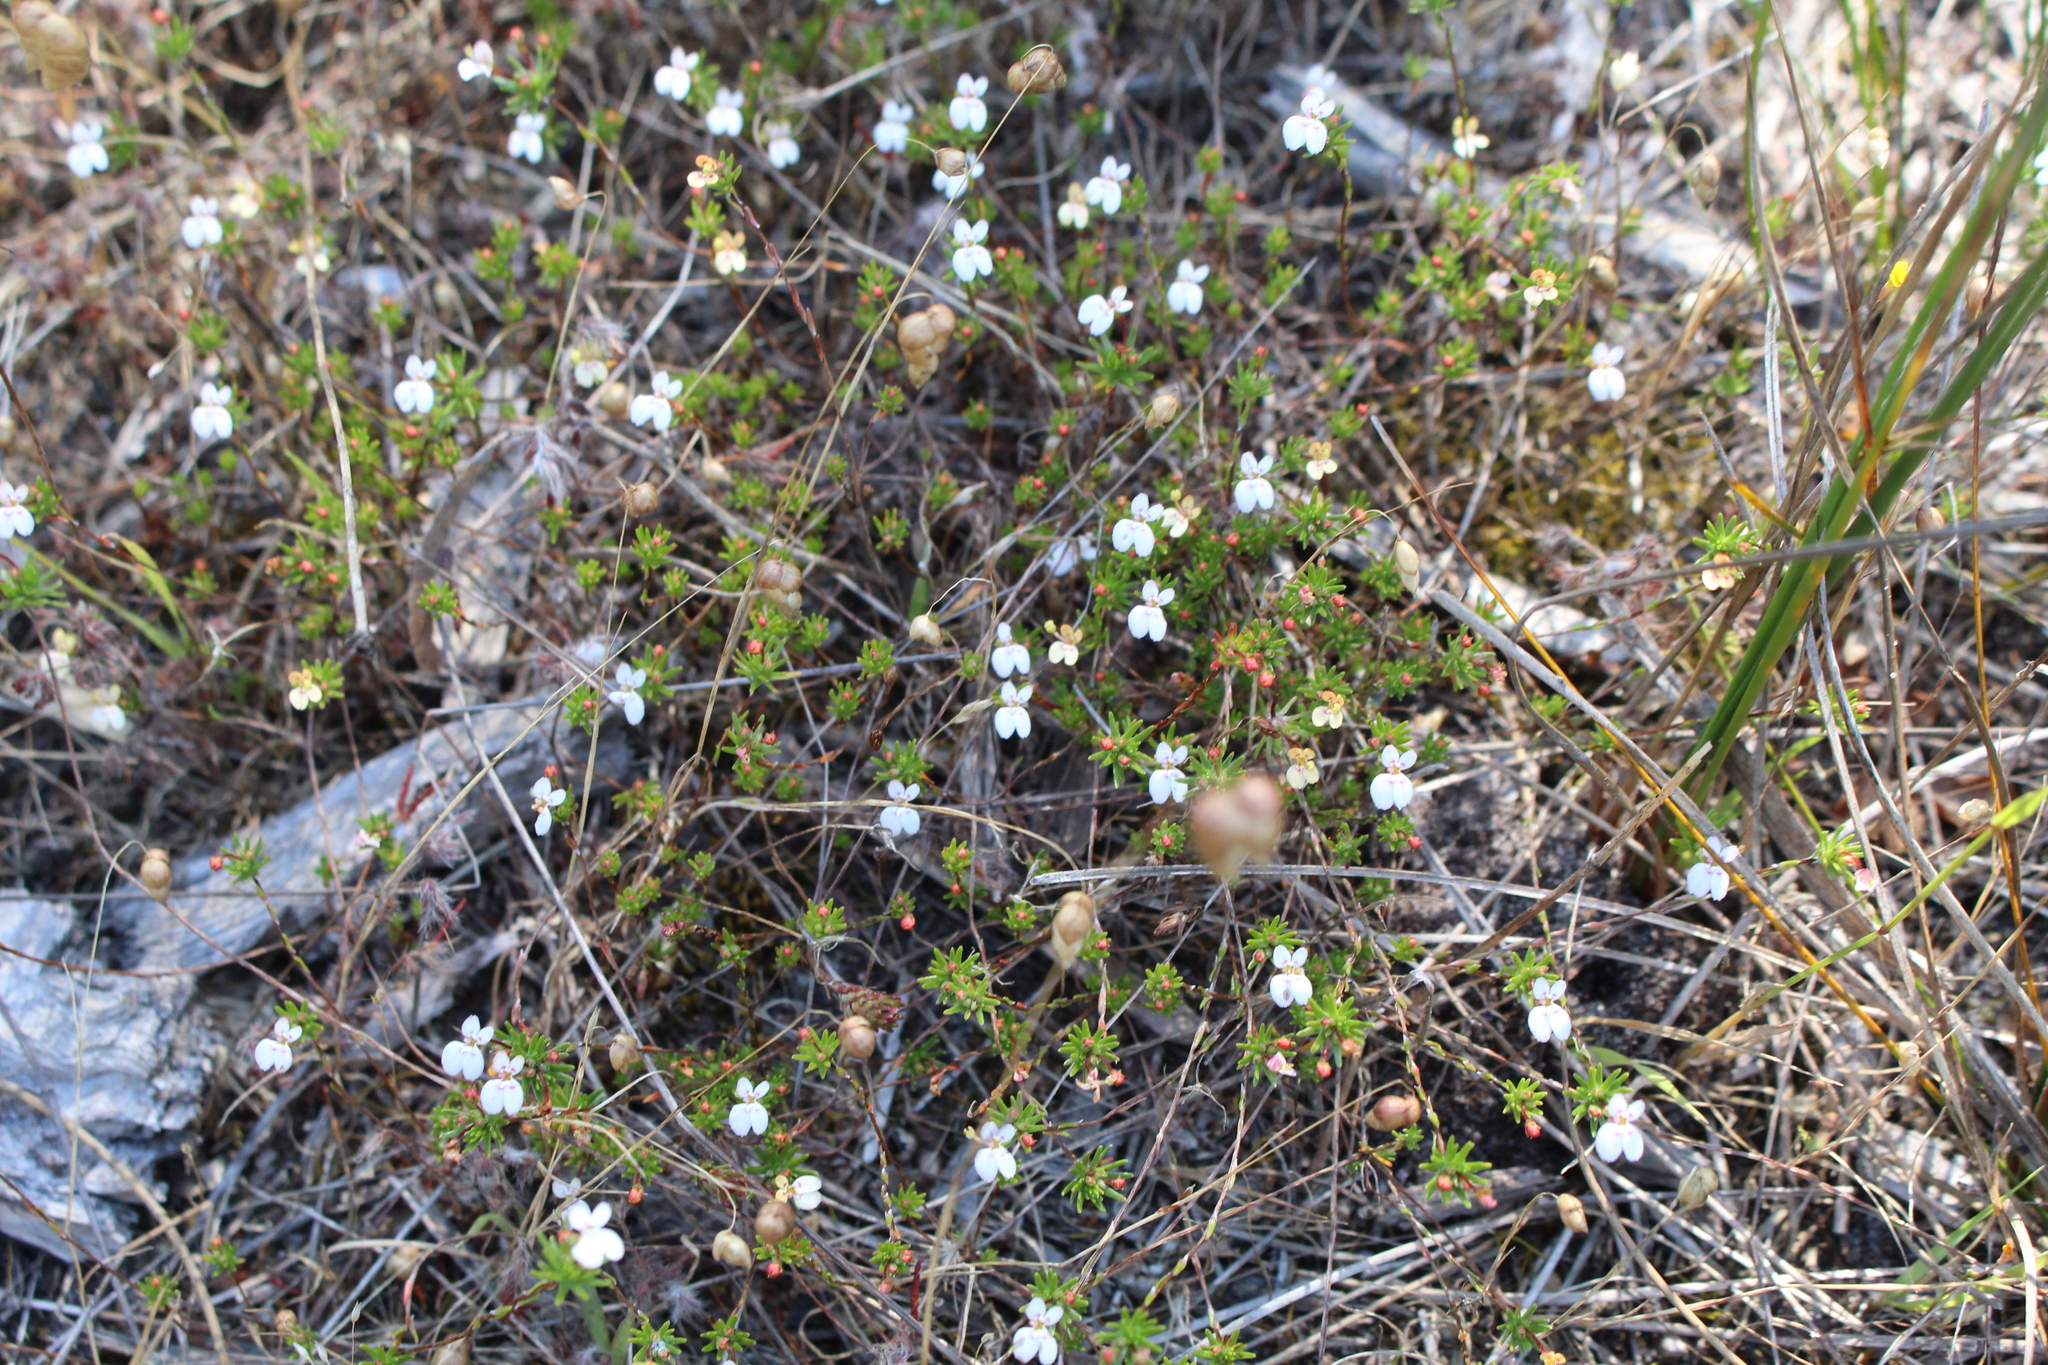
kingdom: Plantae
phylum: Tracheophyta
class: Magnoliopsida
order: Asterales
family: Stylidiaceae
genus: Stylidium
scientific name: Stylidium repens
